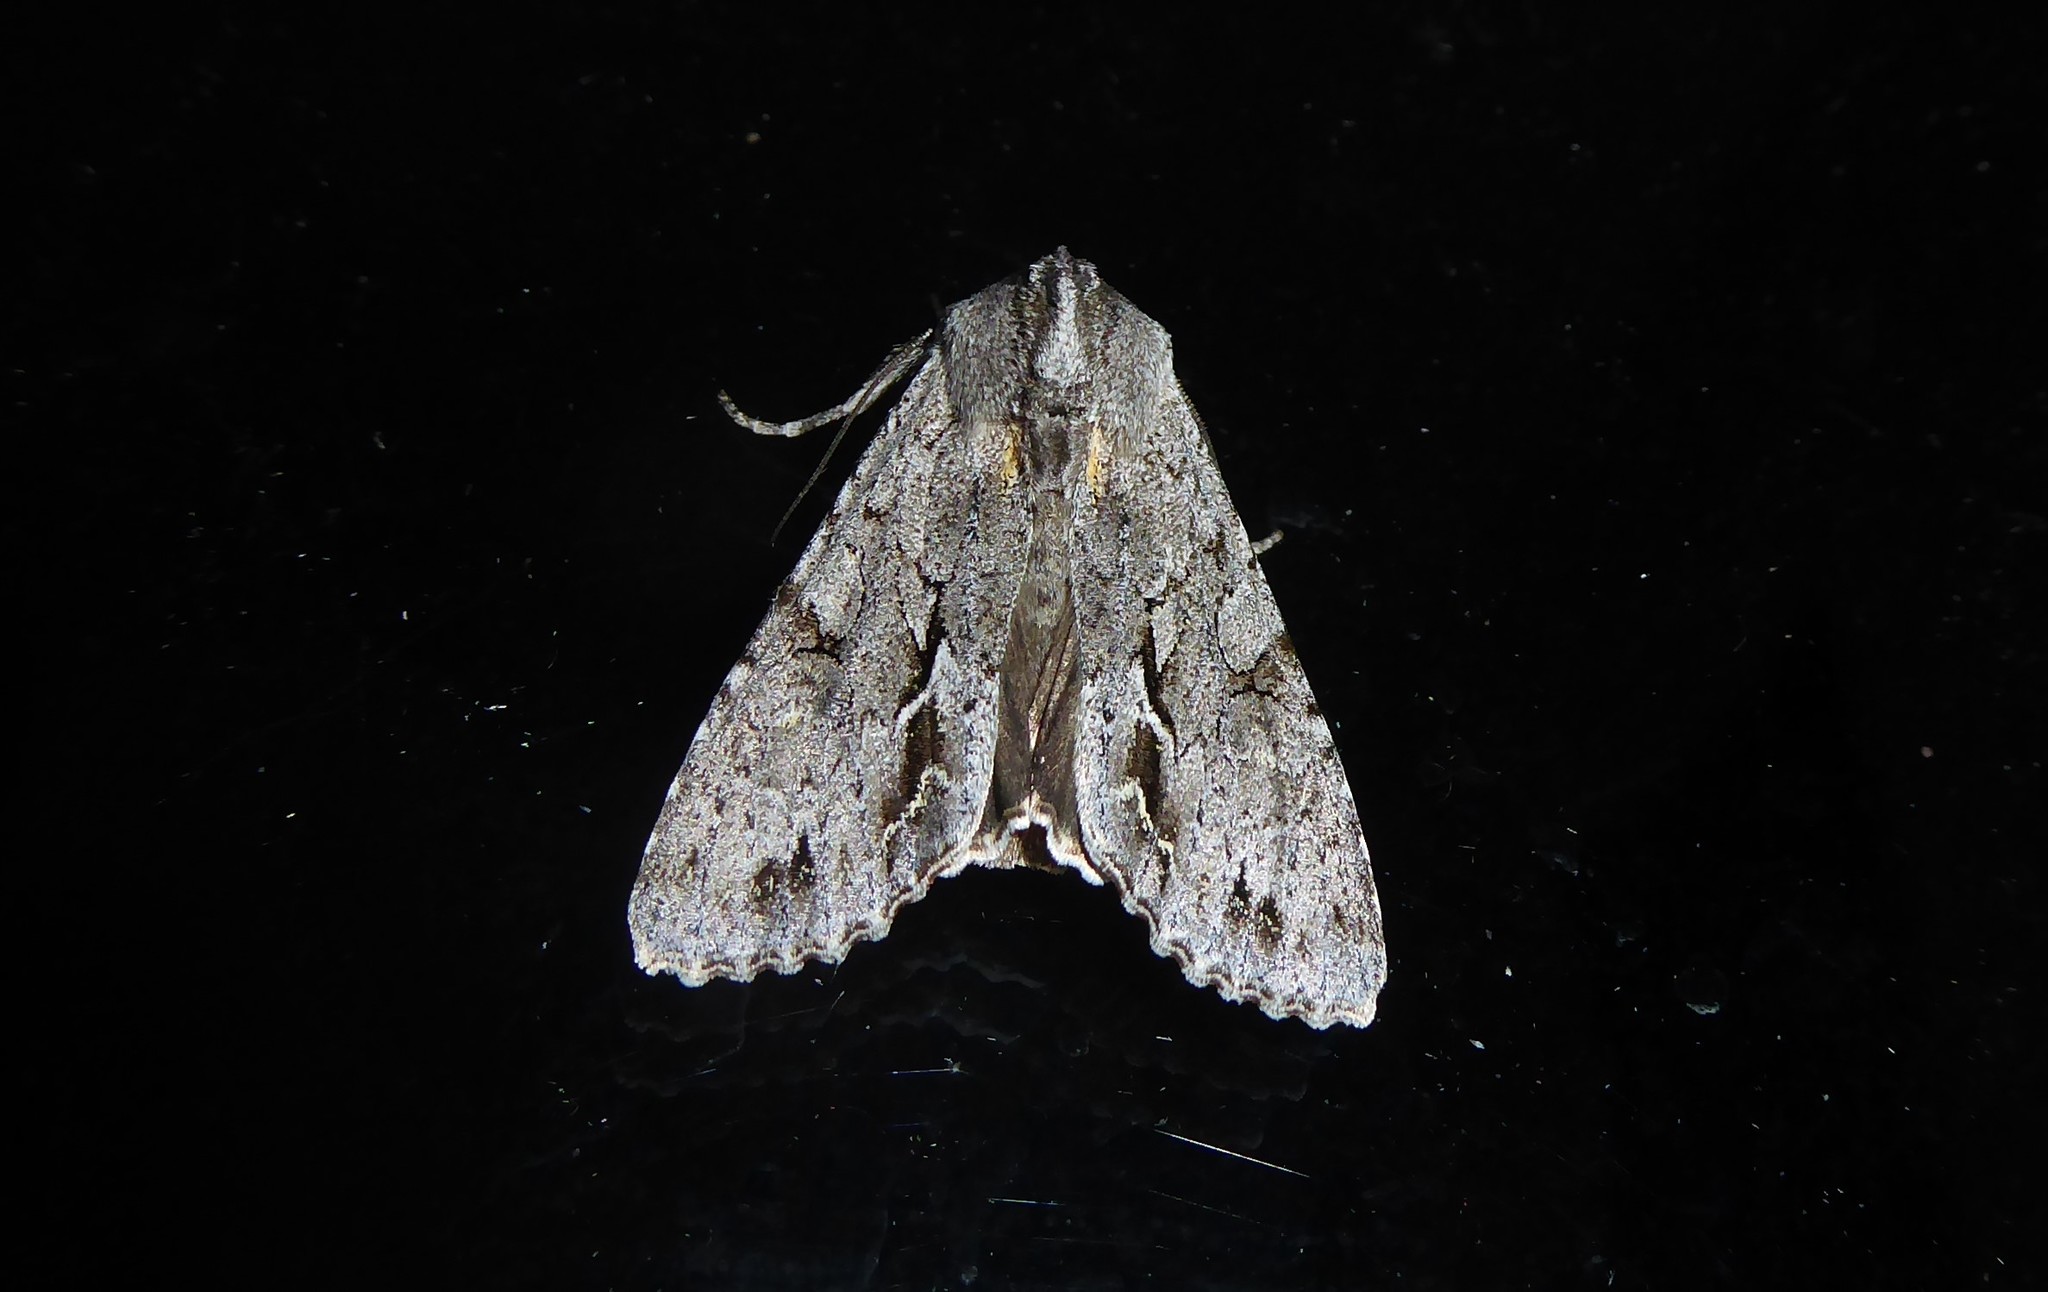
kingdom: Animalia
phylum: Arthropoda
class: Insecta
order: Lepidoptera
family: Noctuidae
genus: Ichneutica
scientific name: Ichneutica
